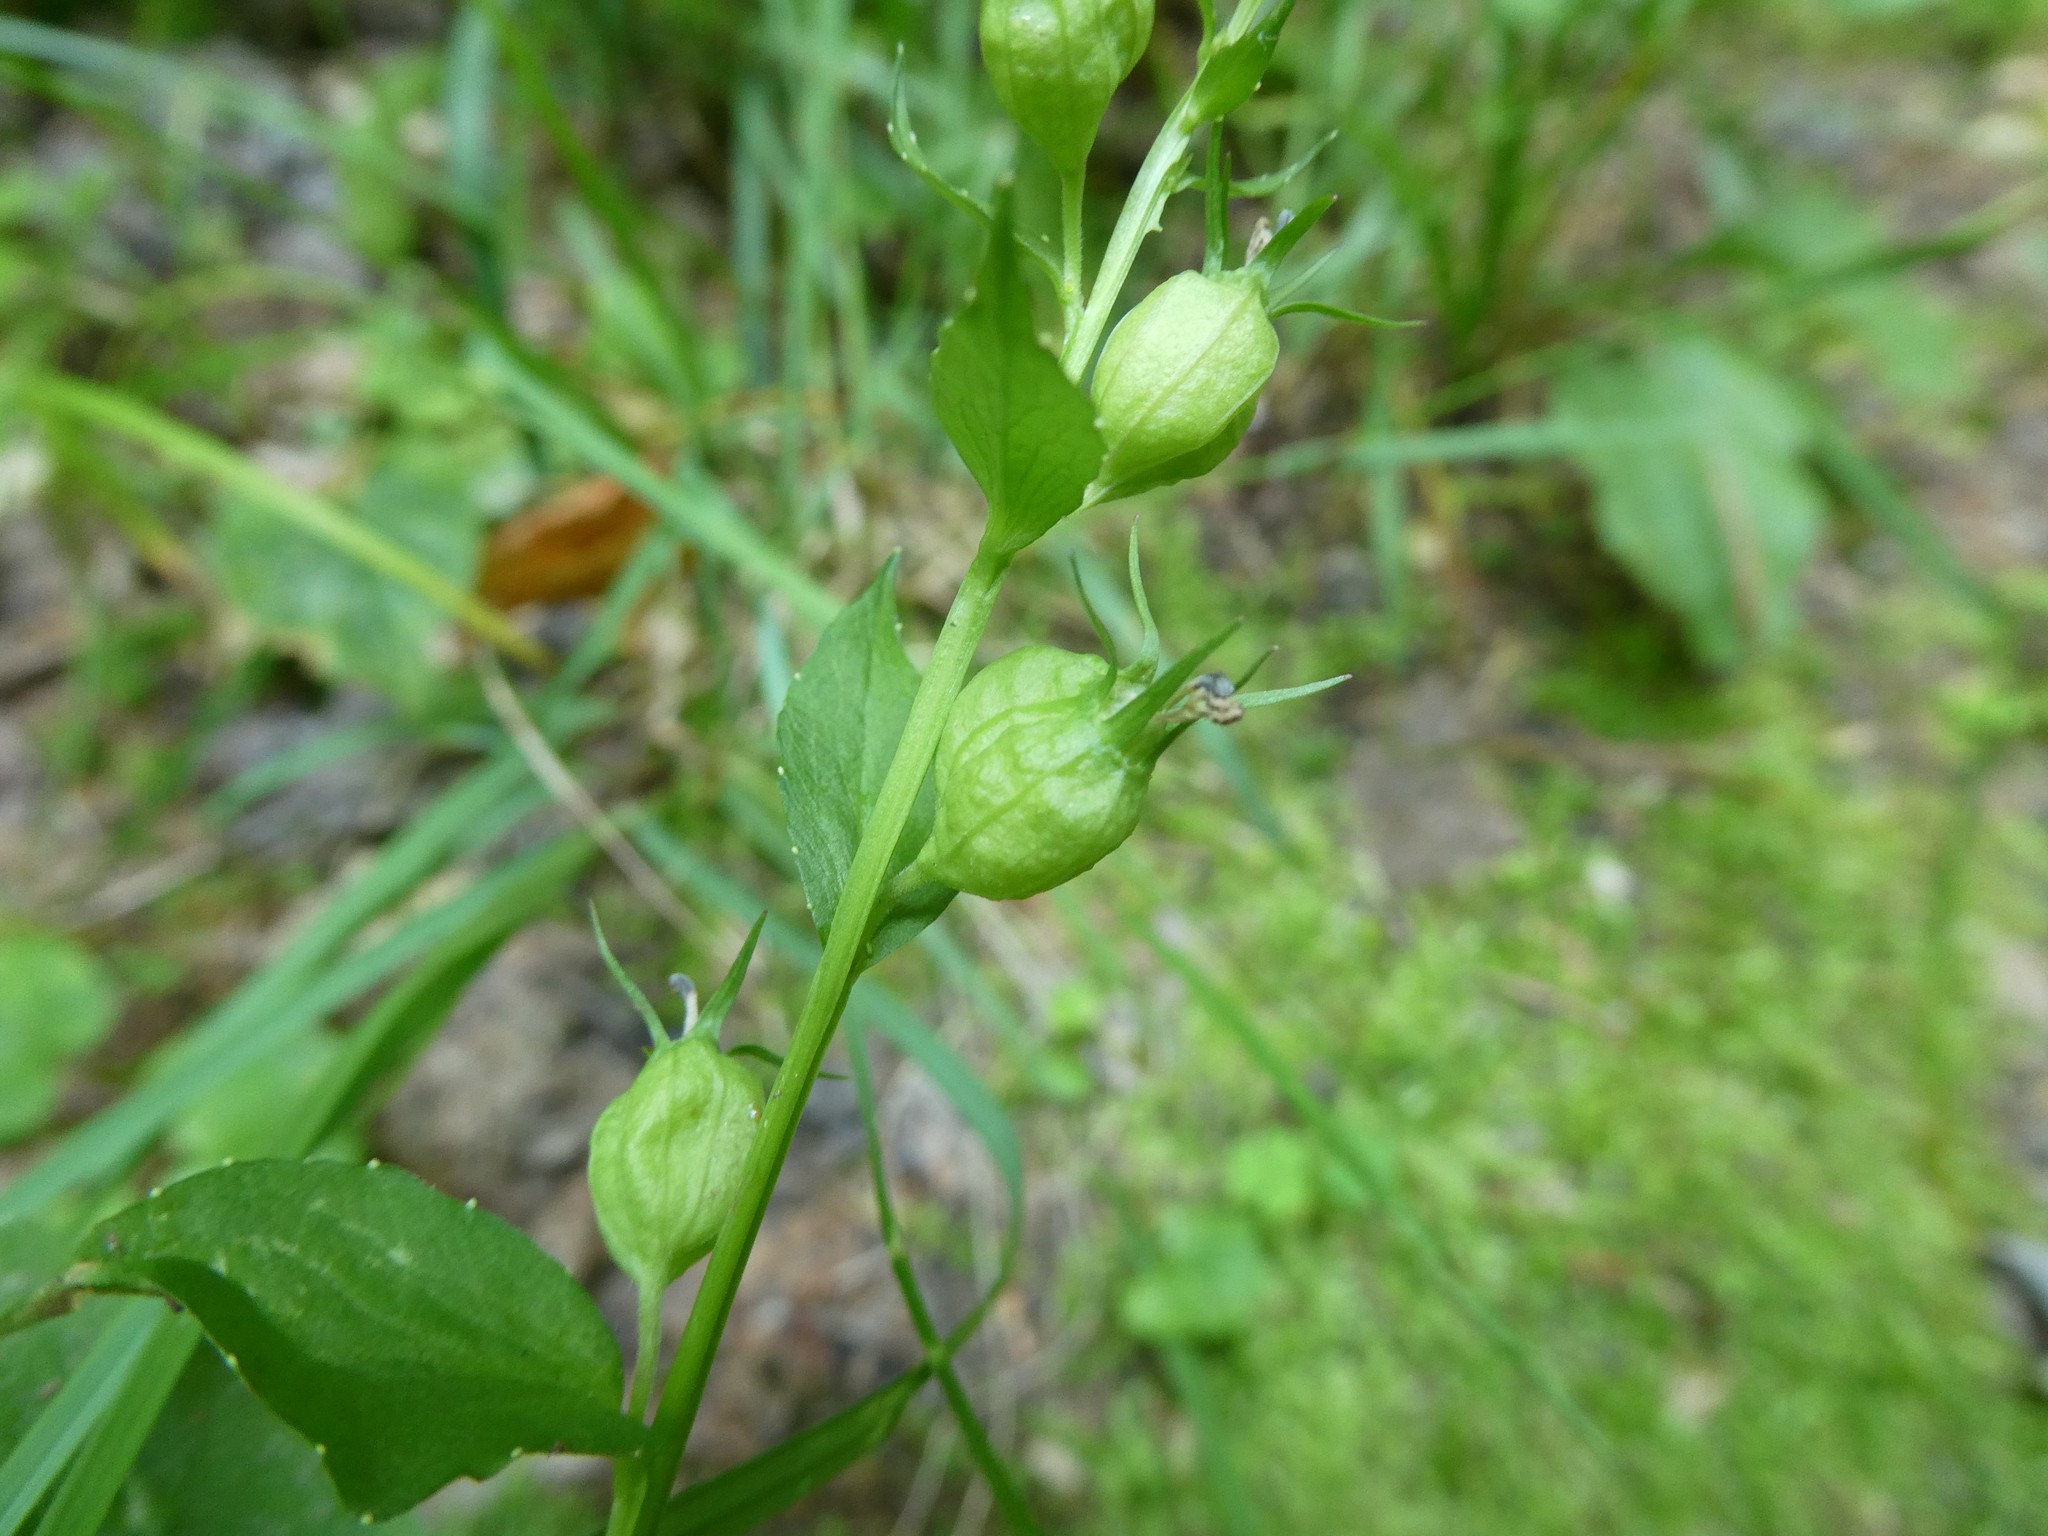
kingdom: Plantae
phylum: Tracheophyta
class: Magnoliopsida
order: Asterales
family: Campanulaceae
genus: Lobelia
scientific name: Lobelia inflata
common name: Indian tobacco
